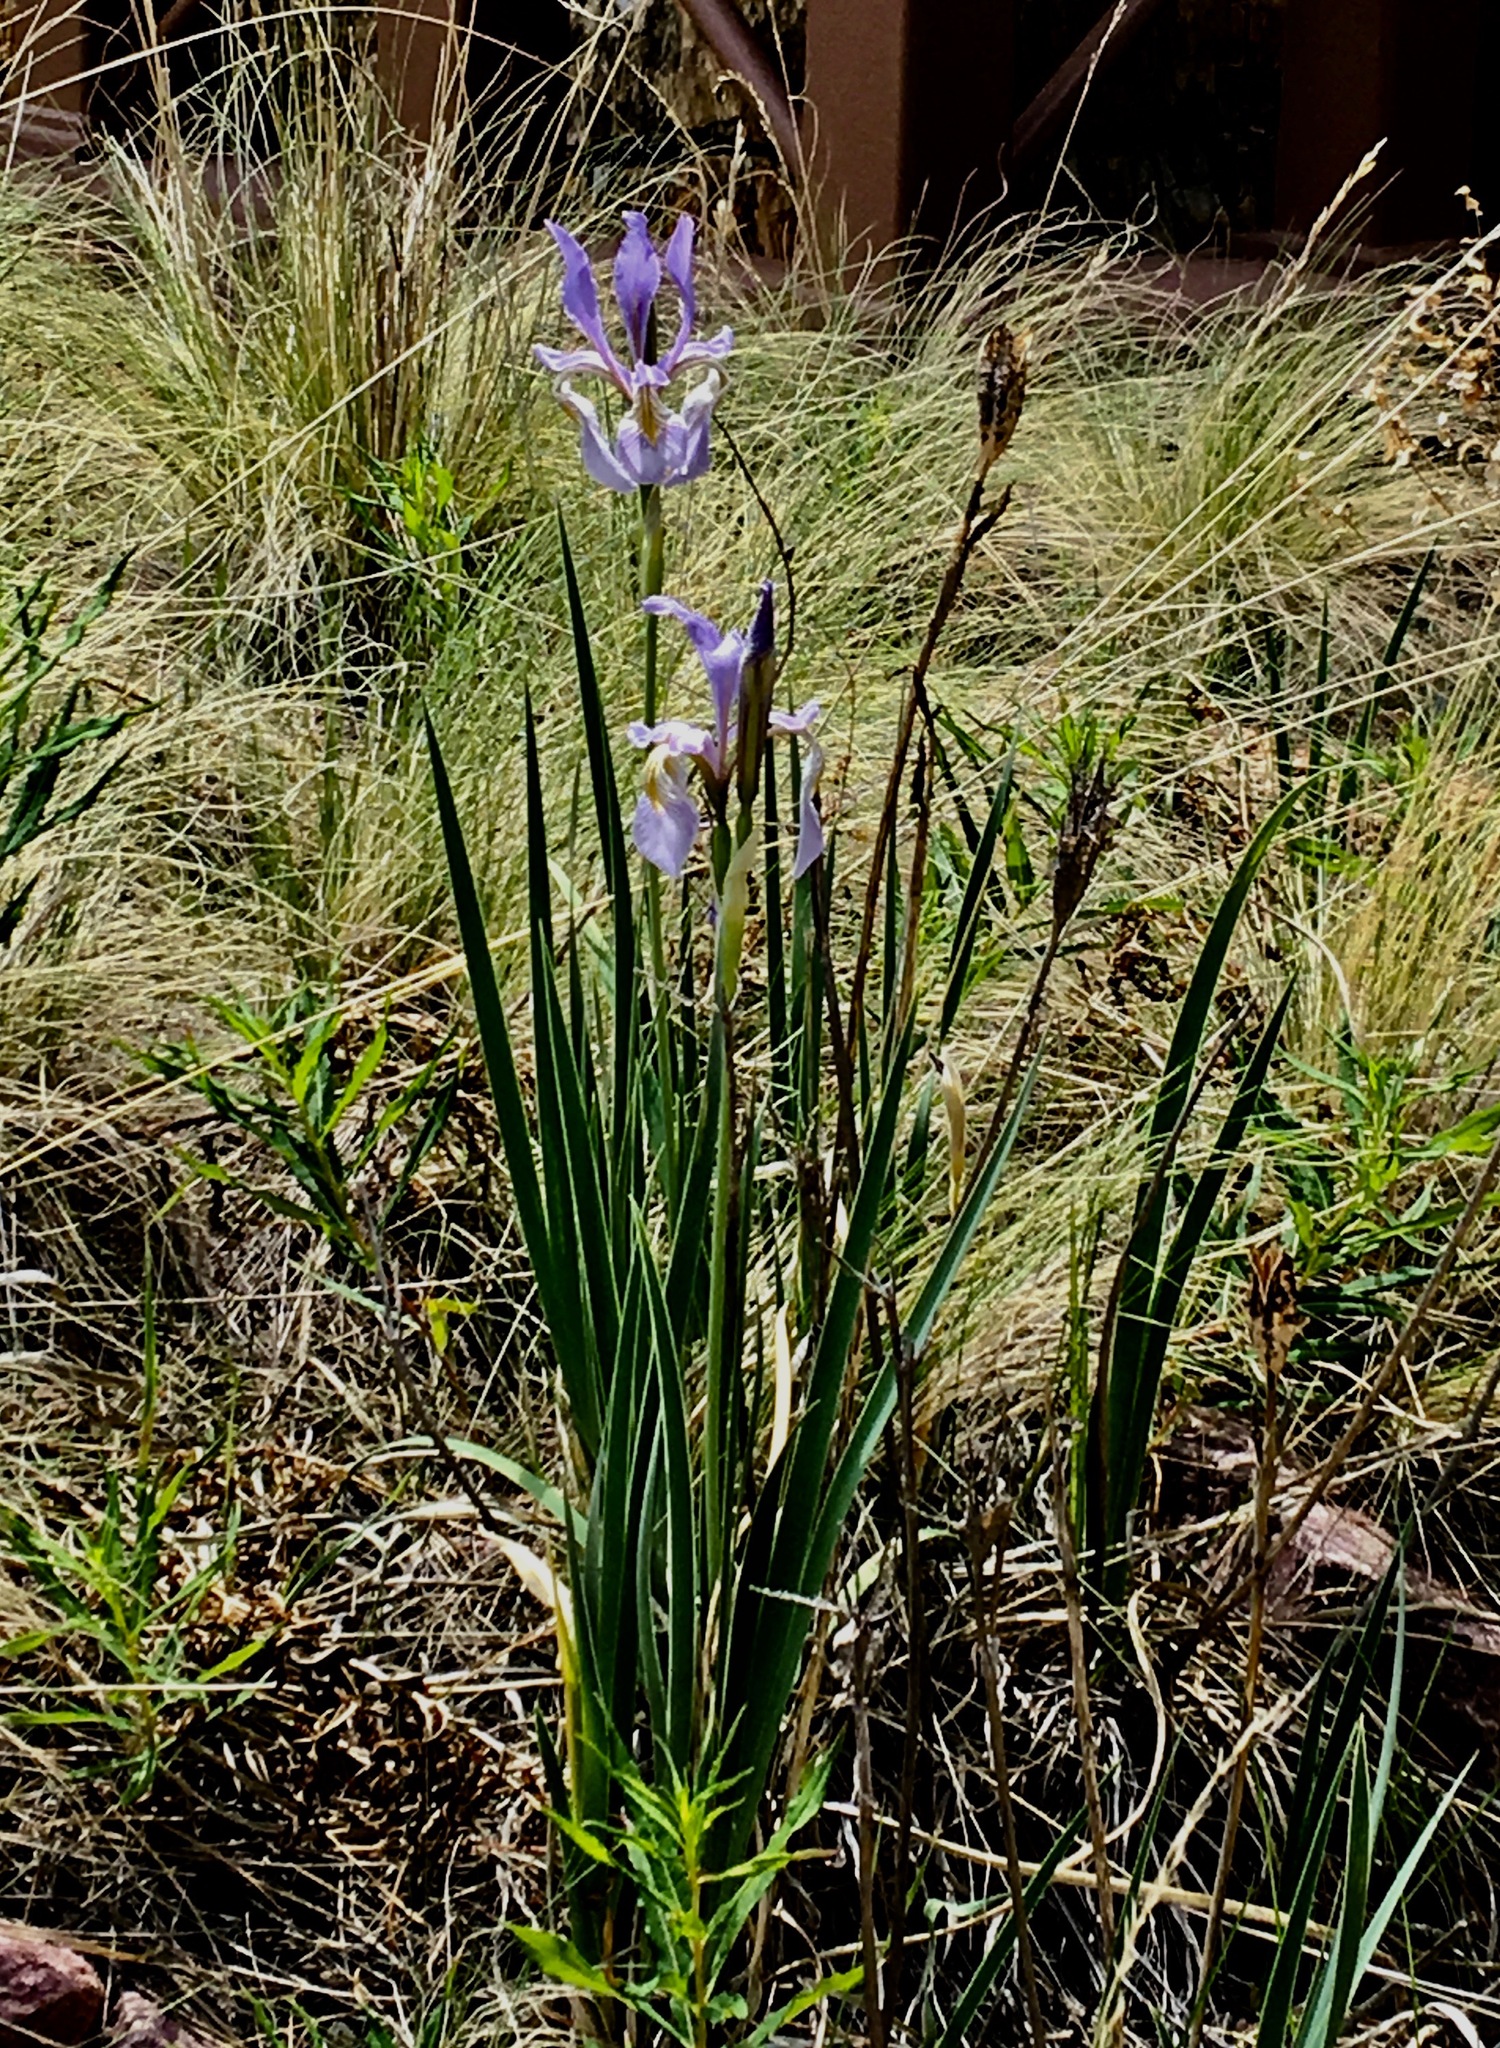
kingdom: Plantae
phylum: Tracheophyta
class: Liliopsida
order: Asparagales
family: Iridaceae
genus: Iris
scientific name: Iris missouriensis
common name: Rocky mountain iris
